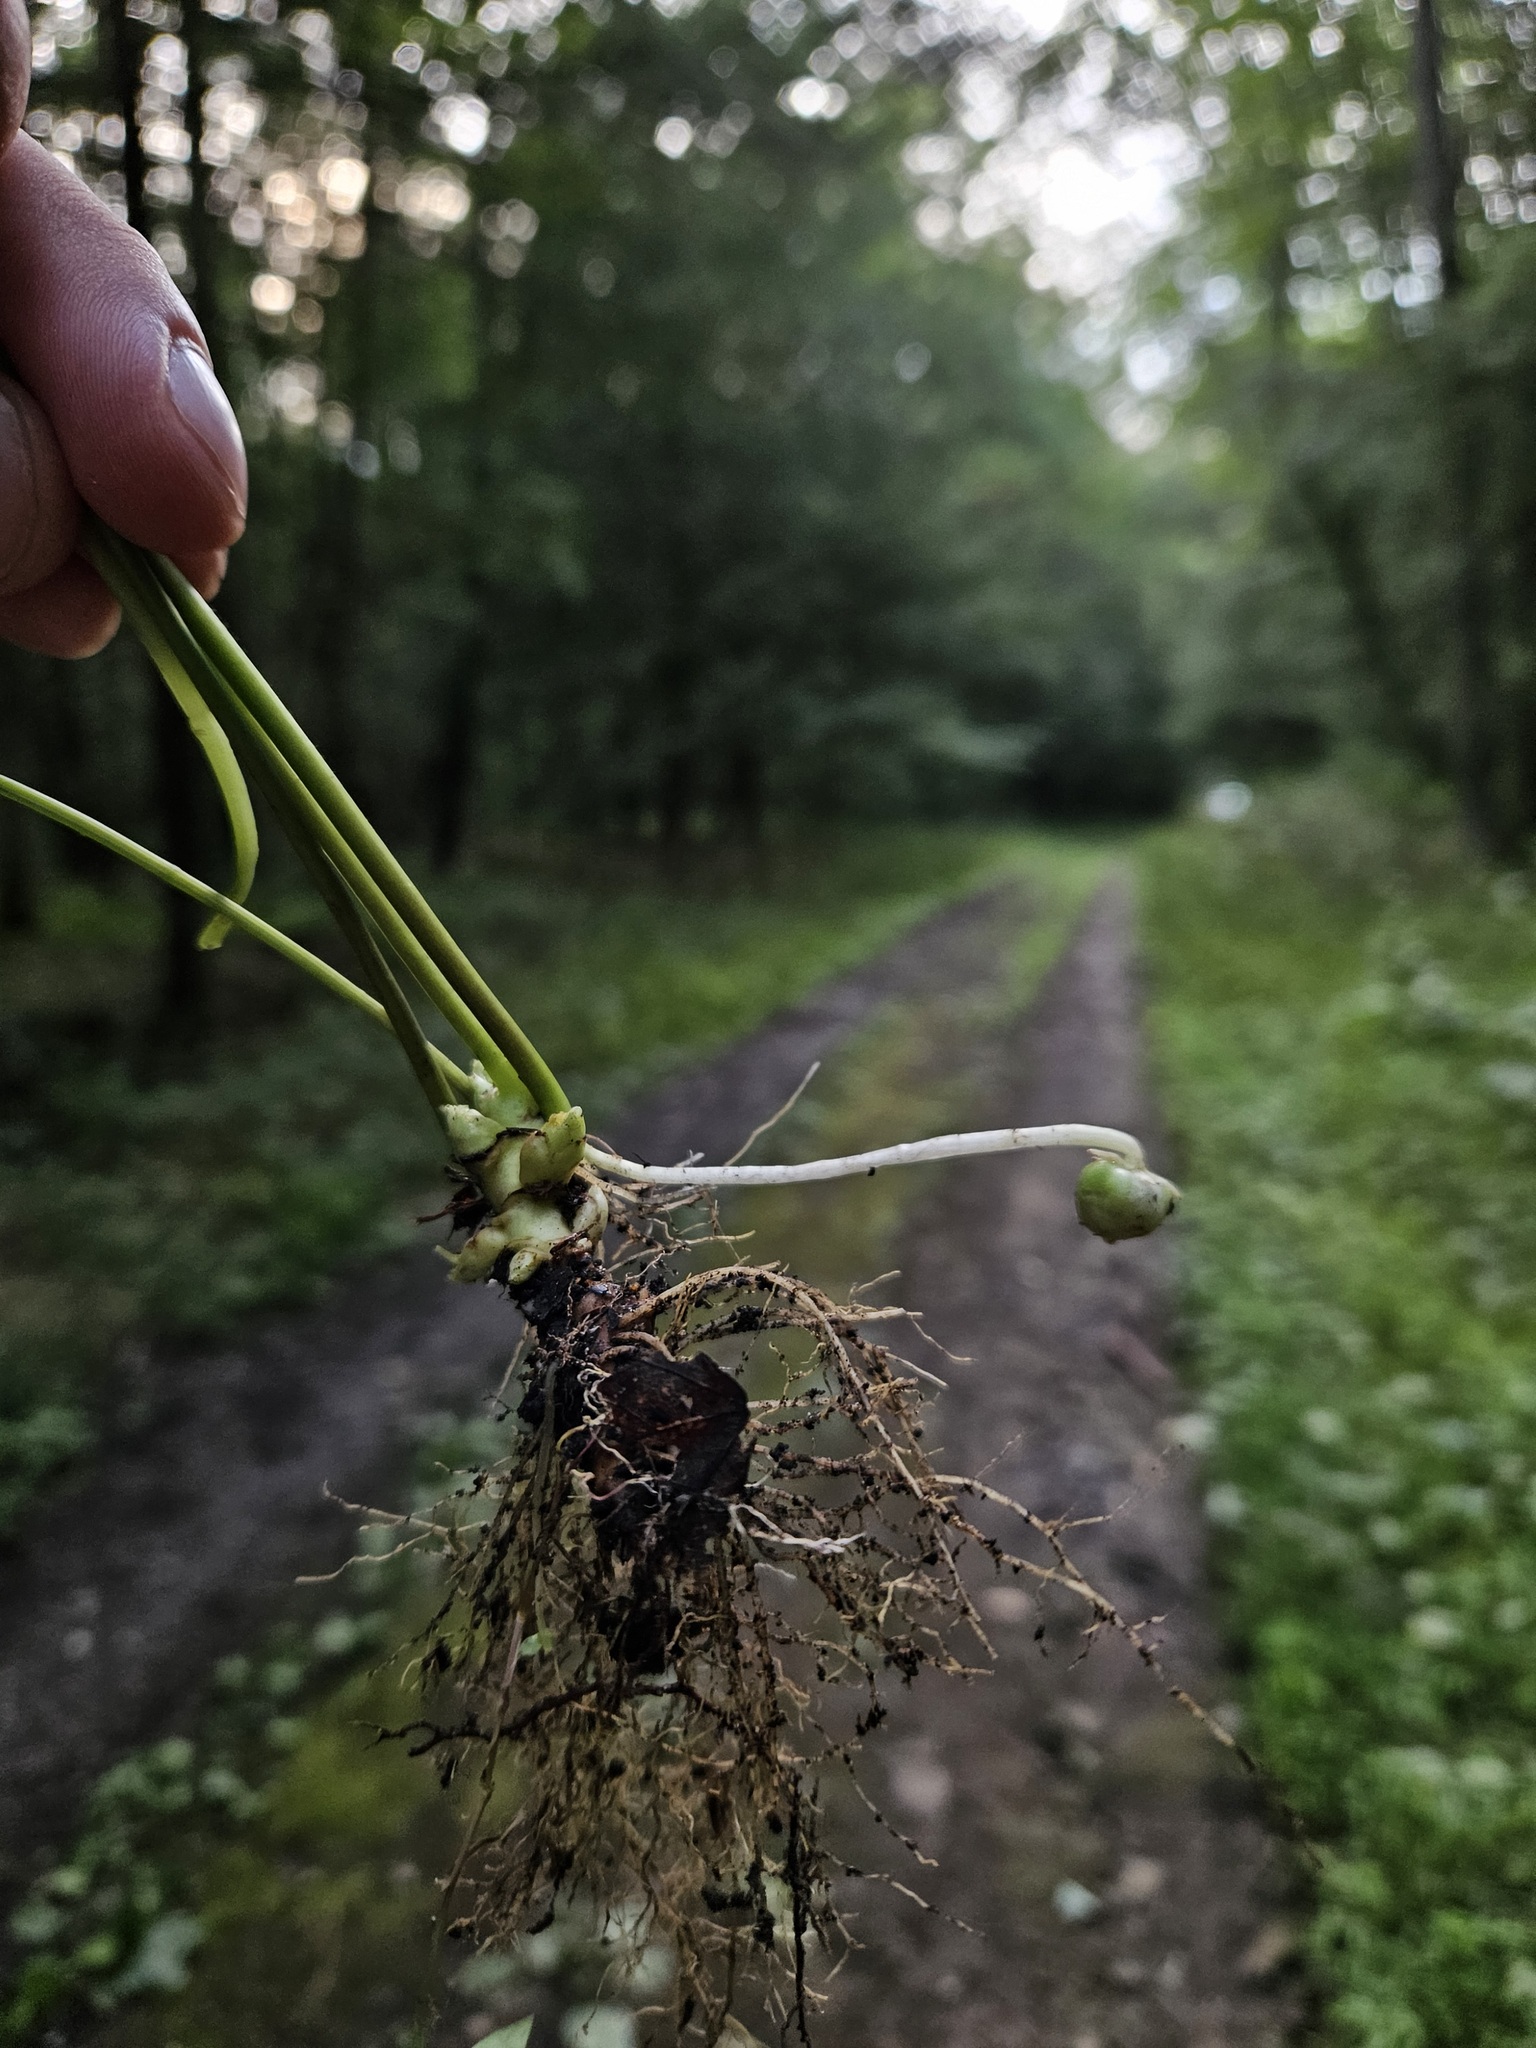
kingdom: Animalia
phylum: Arthropoda
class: Insecta
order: Diptera
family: Cecidomyiidae
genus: Dasineura
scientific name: Dasineura semenivora
